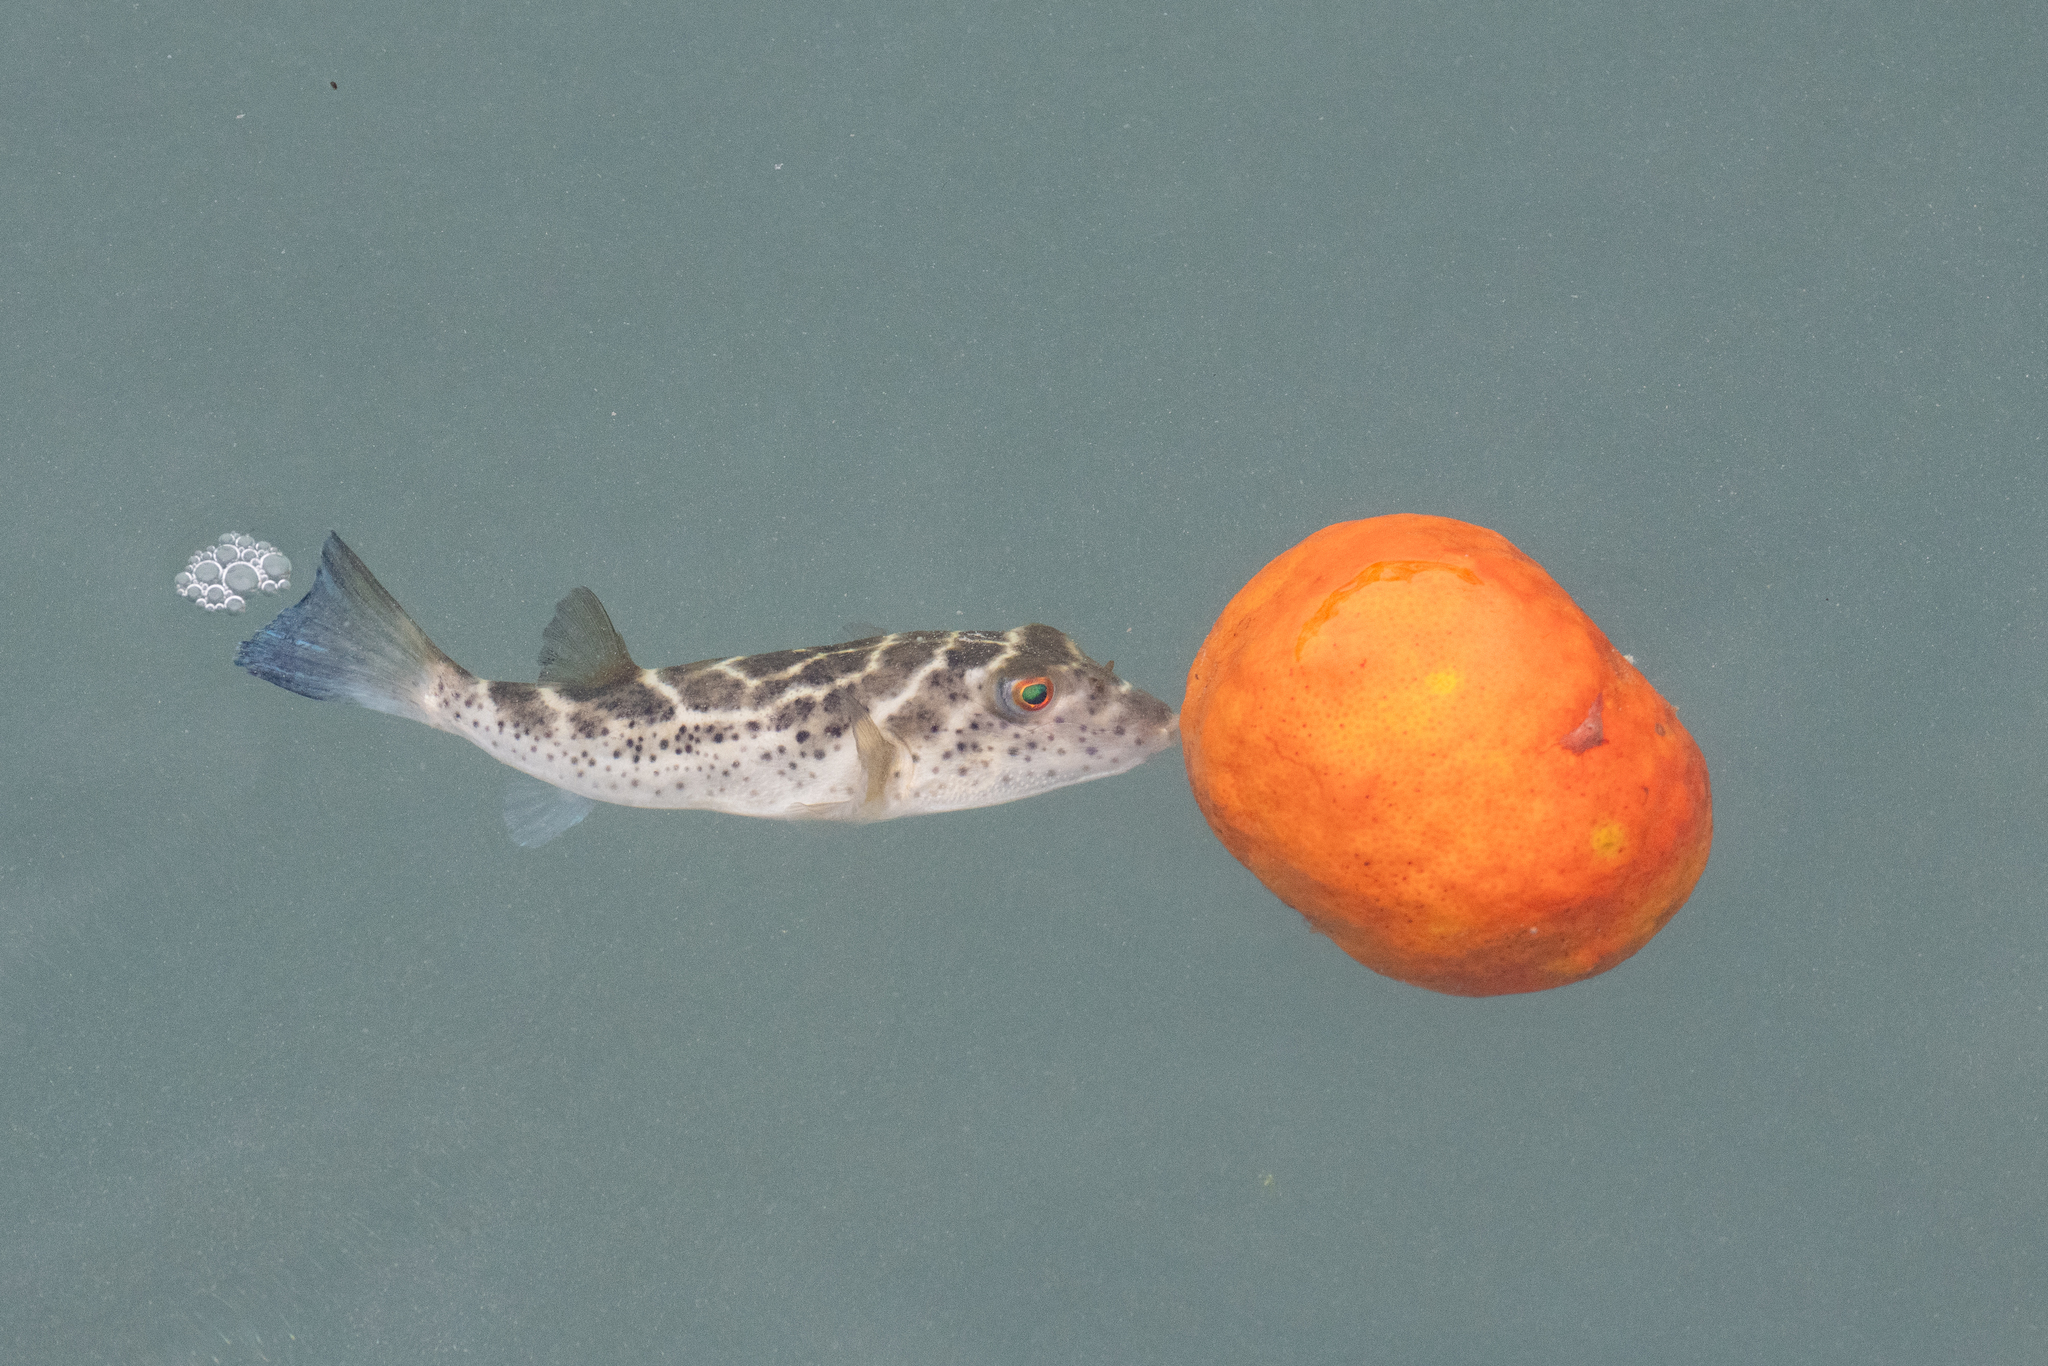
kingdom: Animalia
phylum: Chordata
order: Tetraodontiformes
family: Tetraodontidae
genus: Sphoeroides
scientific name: Sphoeroides annulatus
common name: Bullseye puffer
